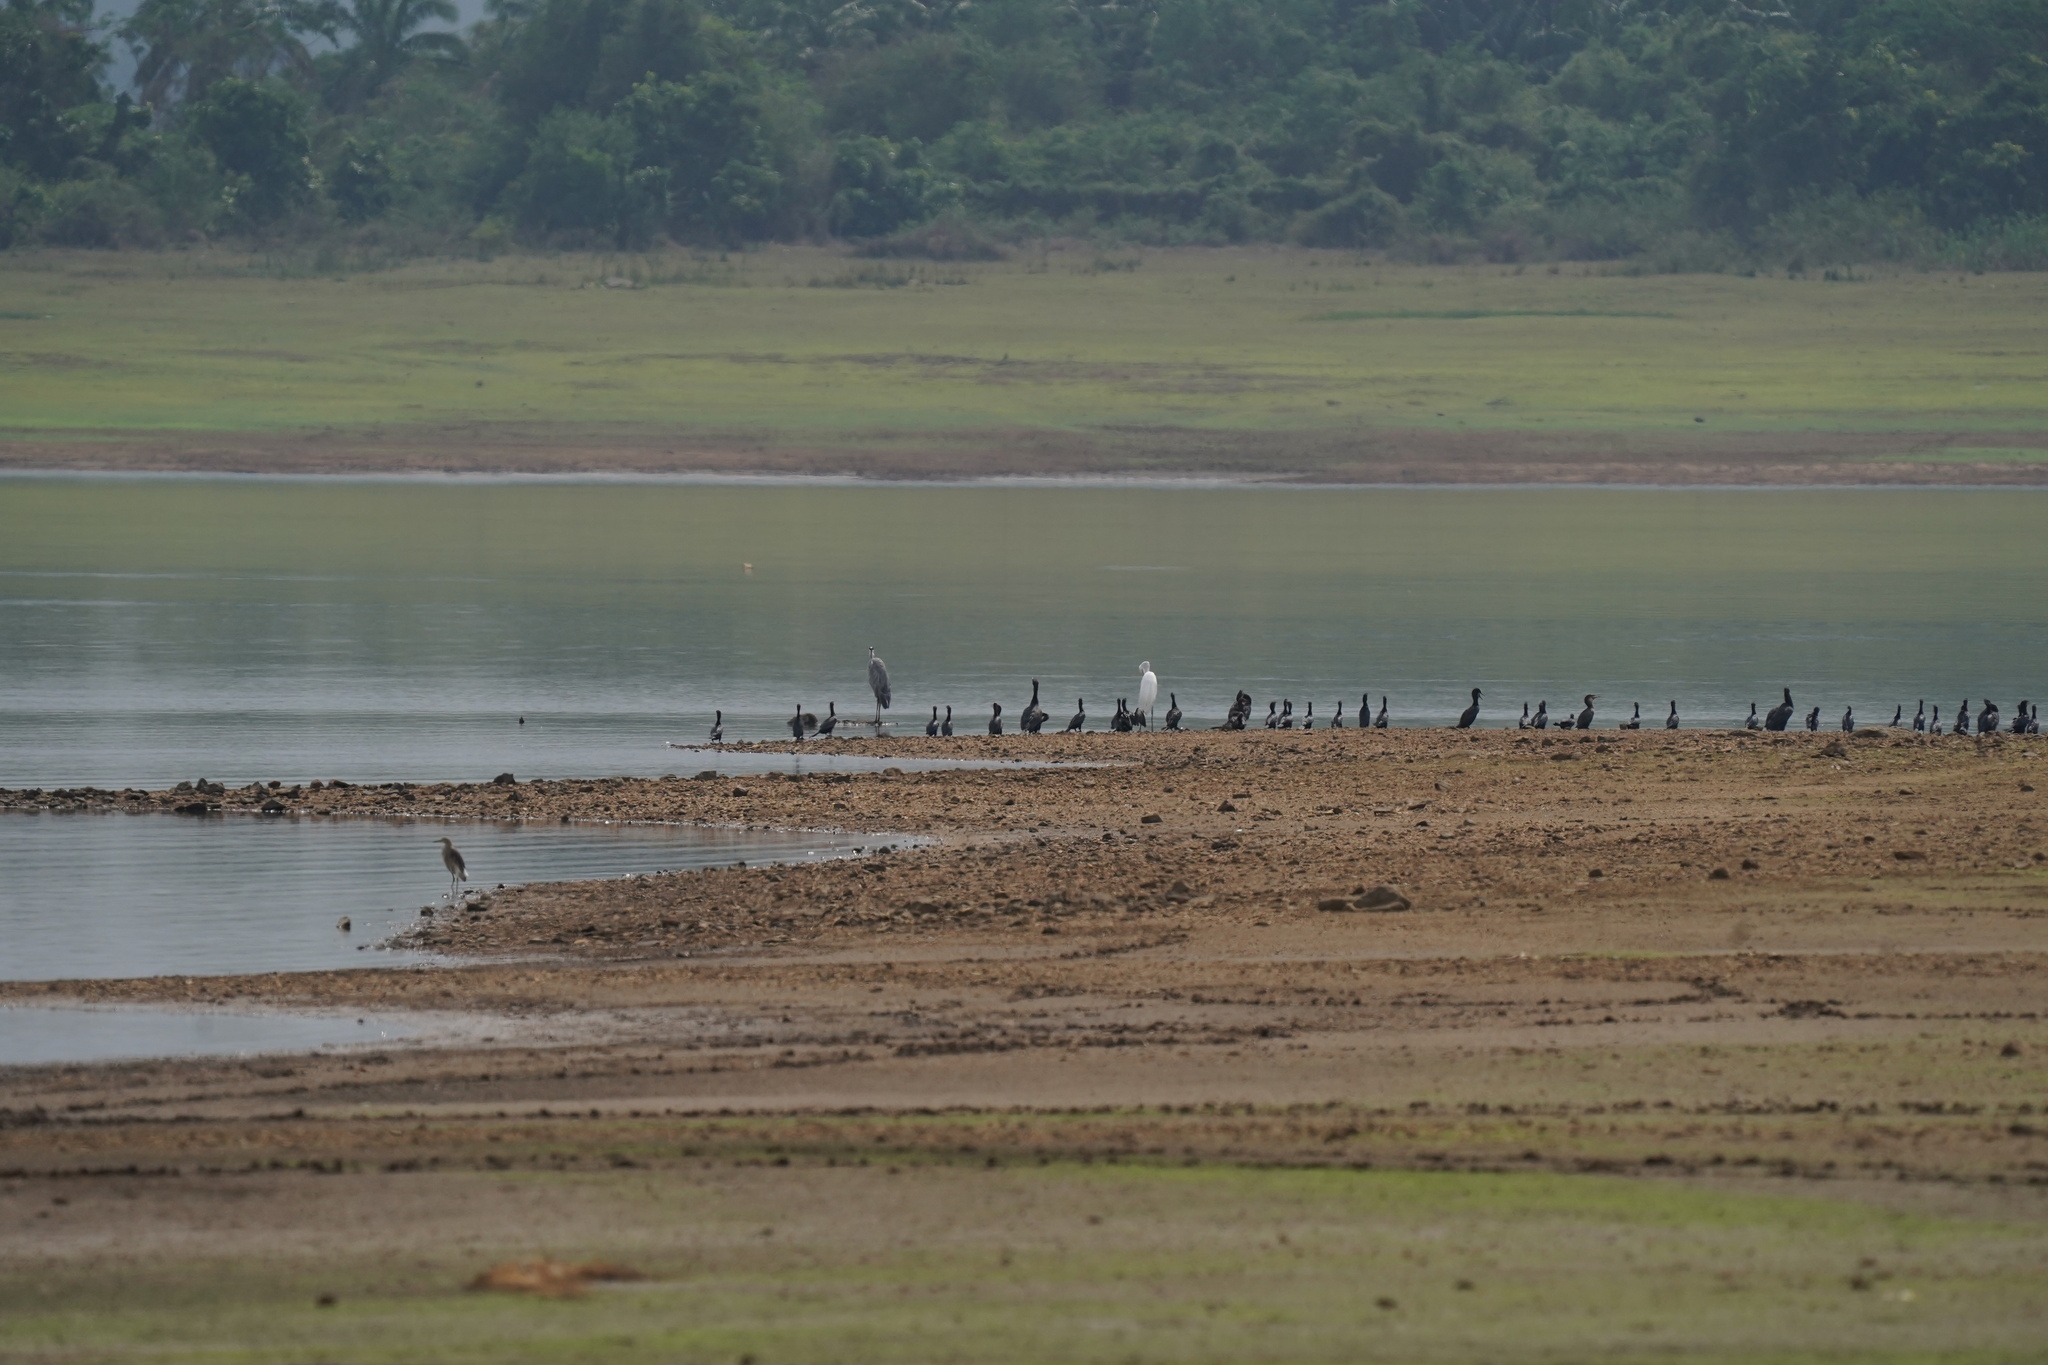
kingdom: Animalia
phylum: Chordata
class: Aves
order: Pelecaniformes
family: Ardeidae
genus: Ardea
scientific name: Ardea cinerea
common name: Grey heron
